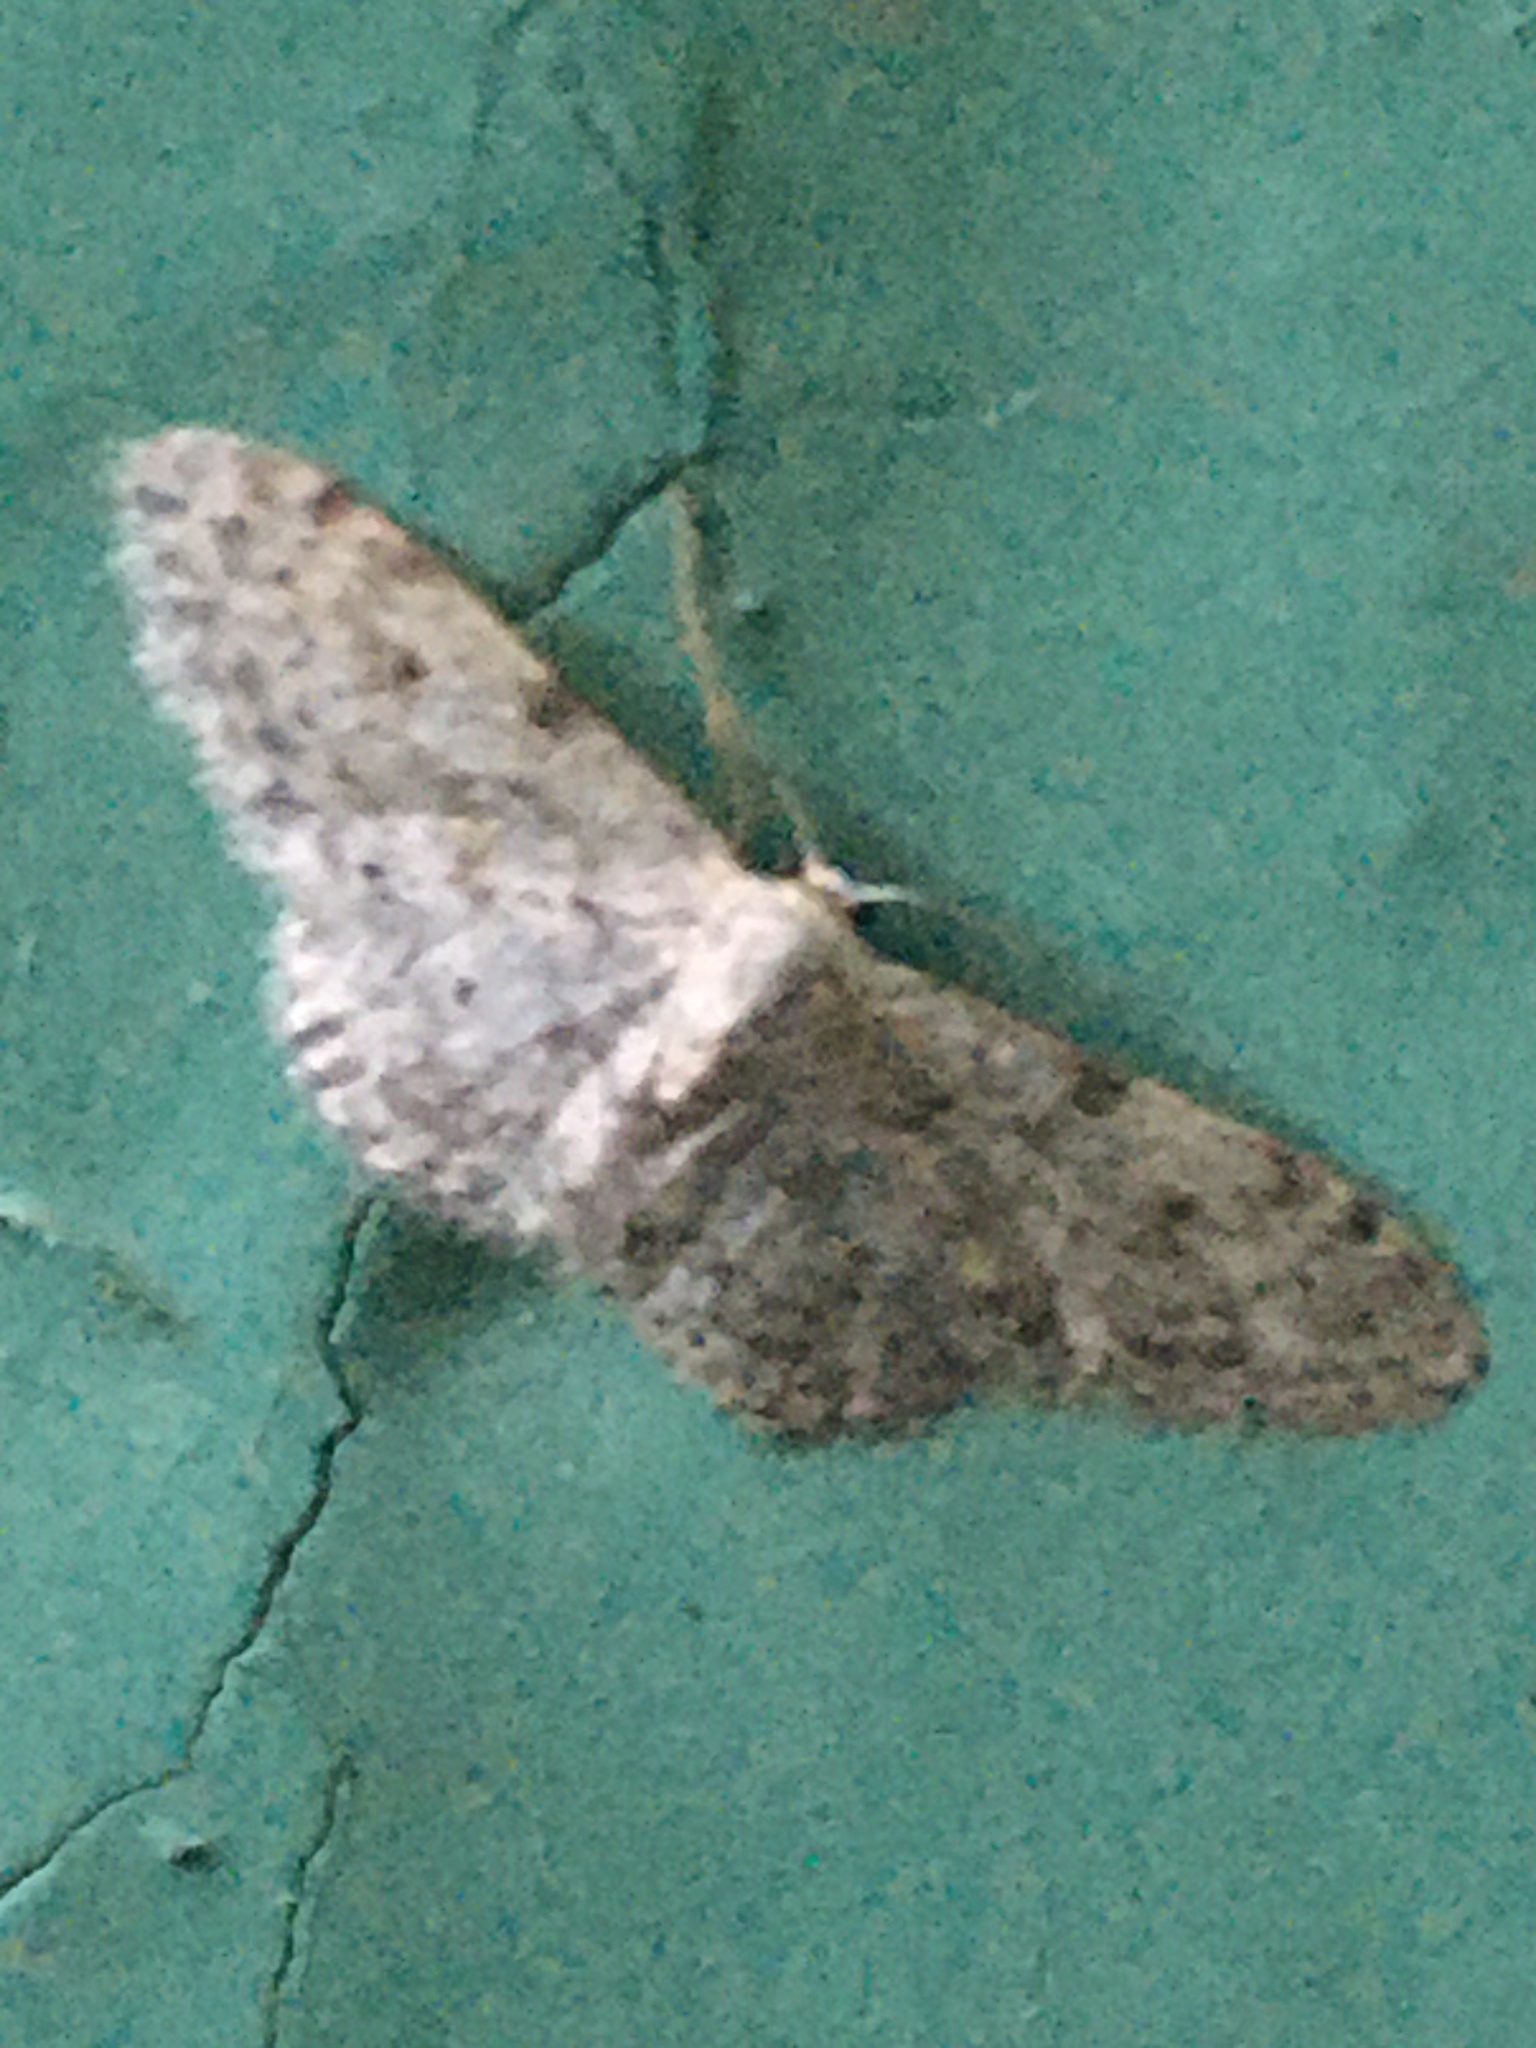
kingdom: Animalia
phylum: Arthropoda
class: Insecta
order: Lepidoptera
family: Geometridae
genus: Idaea
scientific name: Idaea camparia
